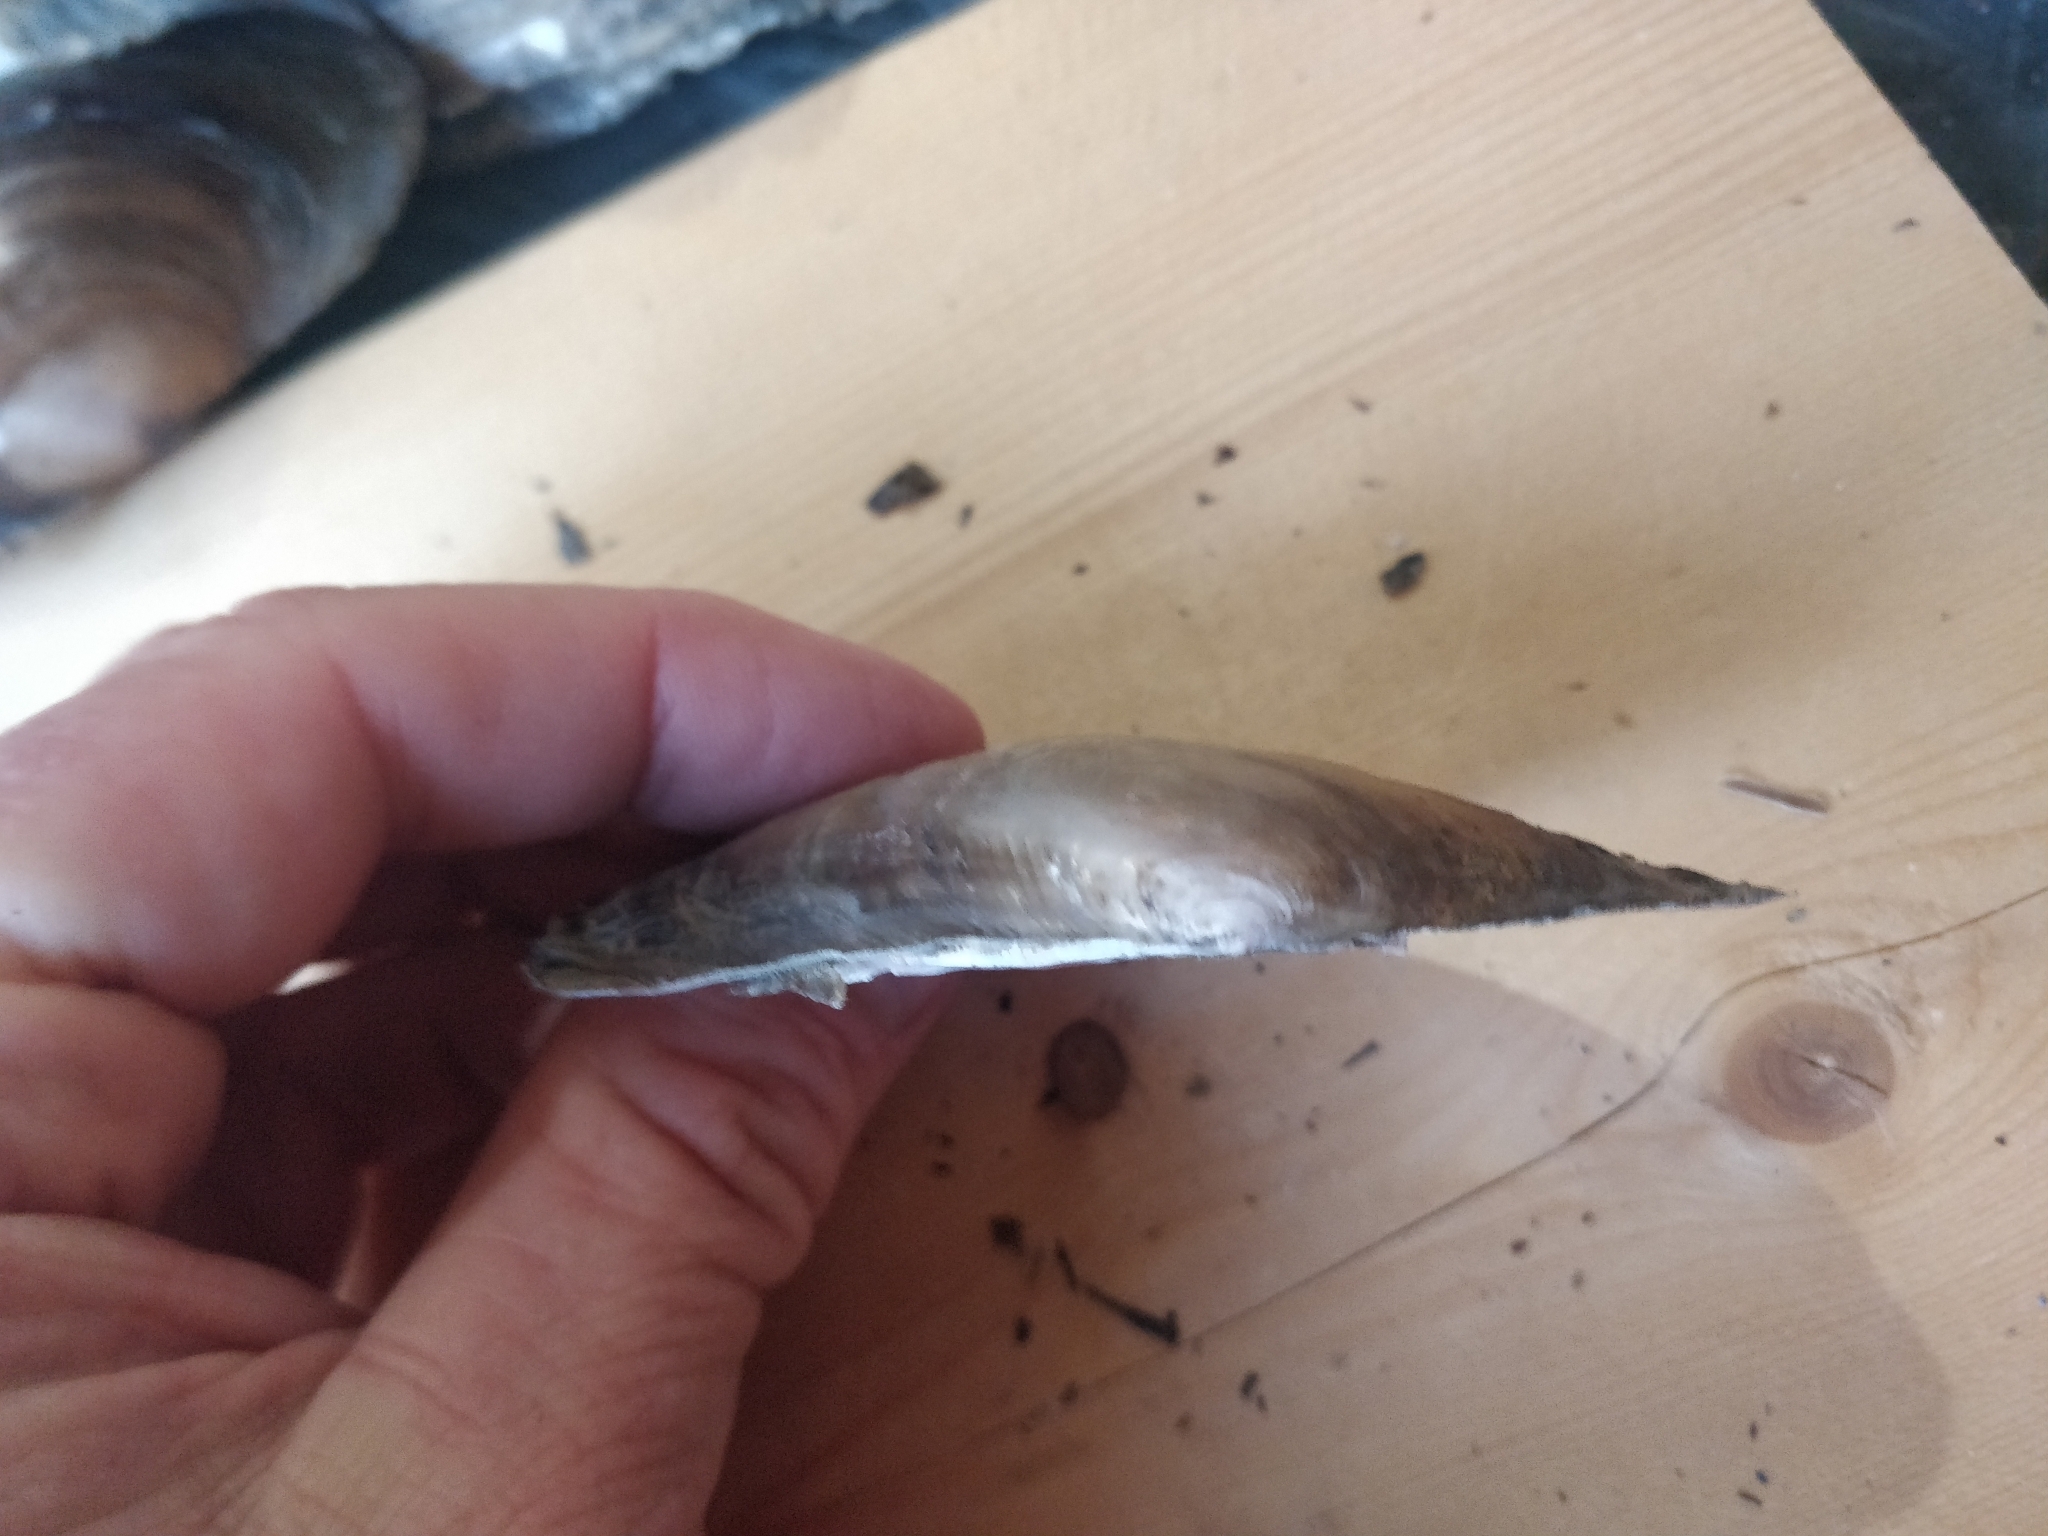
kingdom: Animalia
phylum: Mollusca
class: Bivalvia
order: Unionida
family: Unionidae
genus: Potamilus
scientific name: Potamilus ohiensis
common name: Pink papershell
